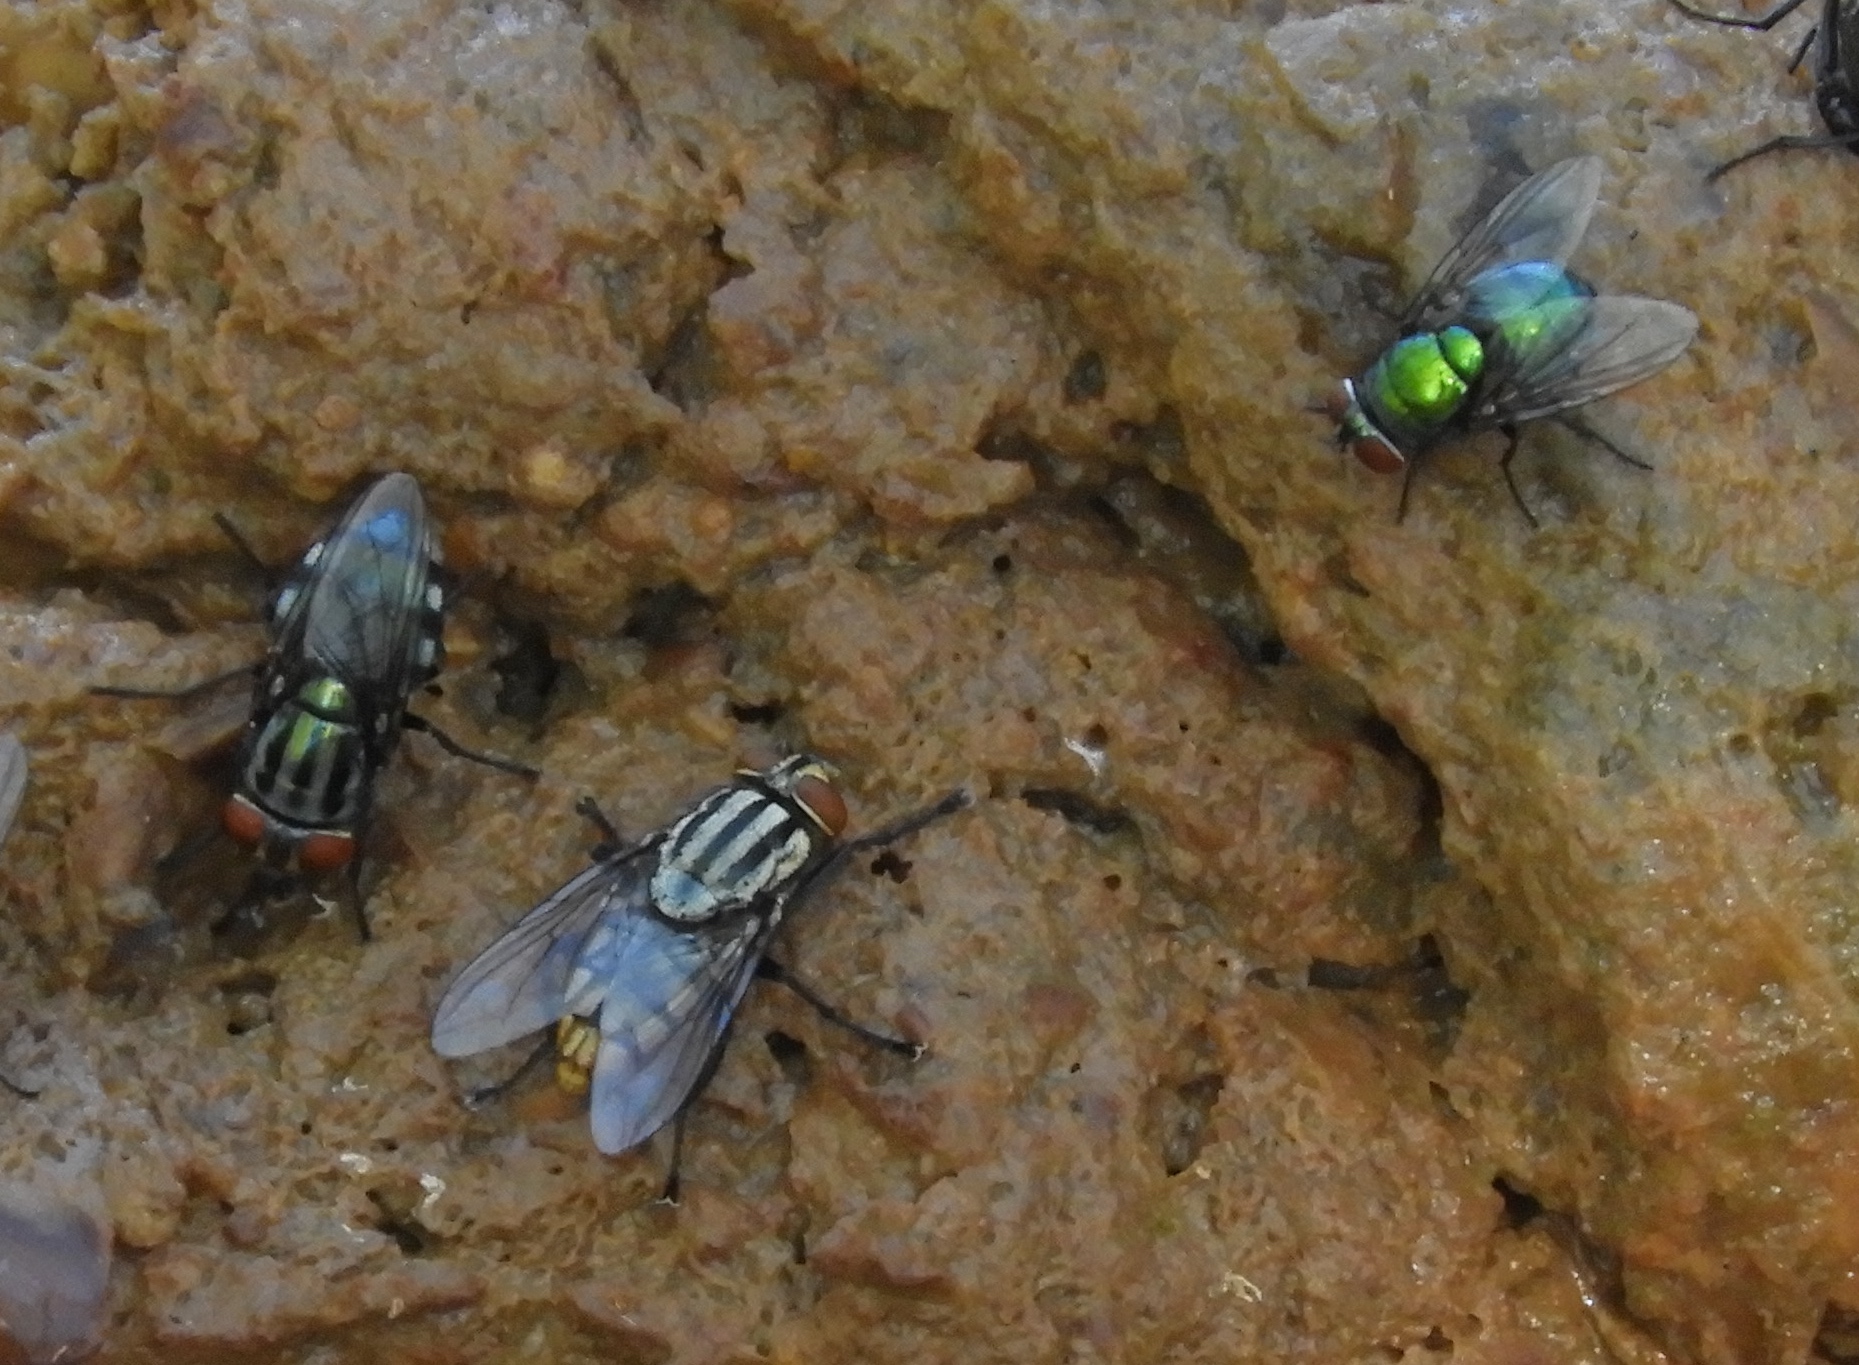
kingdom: Animalia
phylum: Arthropoda
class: Insecta
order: Diptera
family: Calliphoridae
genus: Lucilia
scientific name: Lucilia
